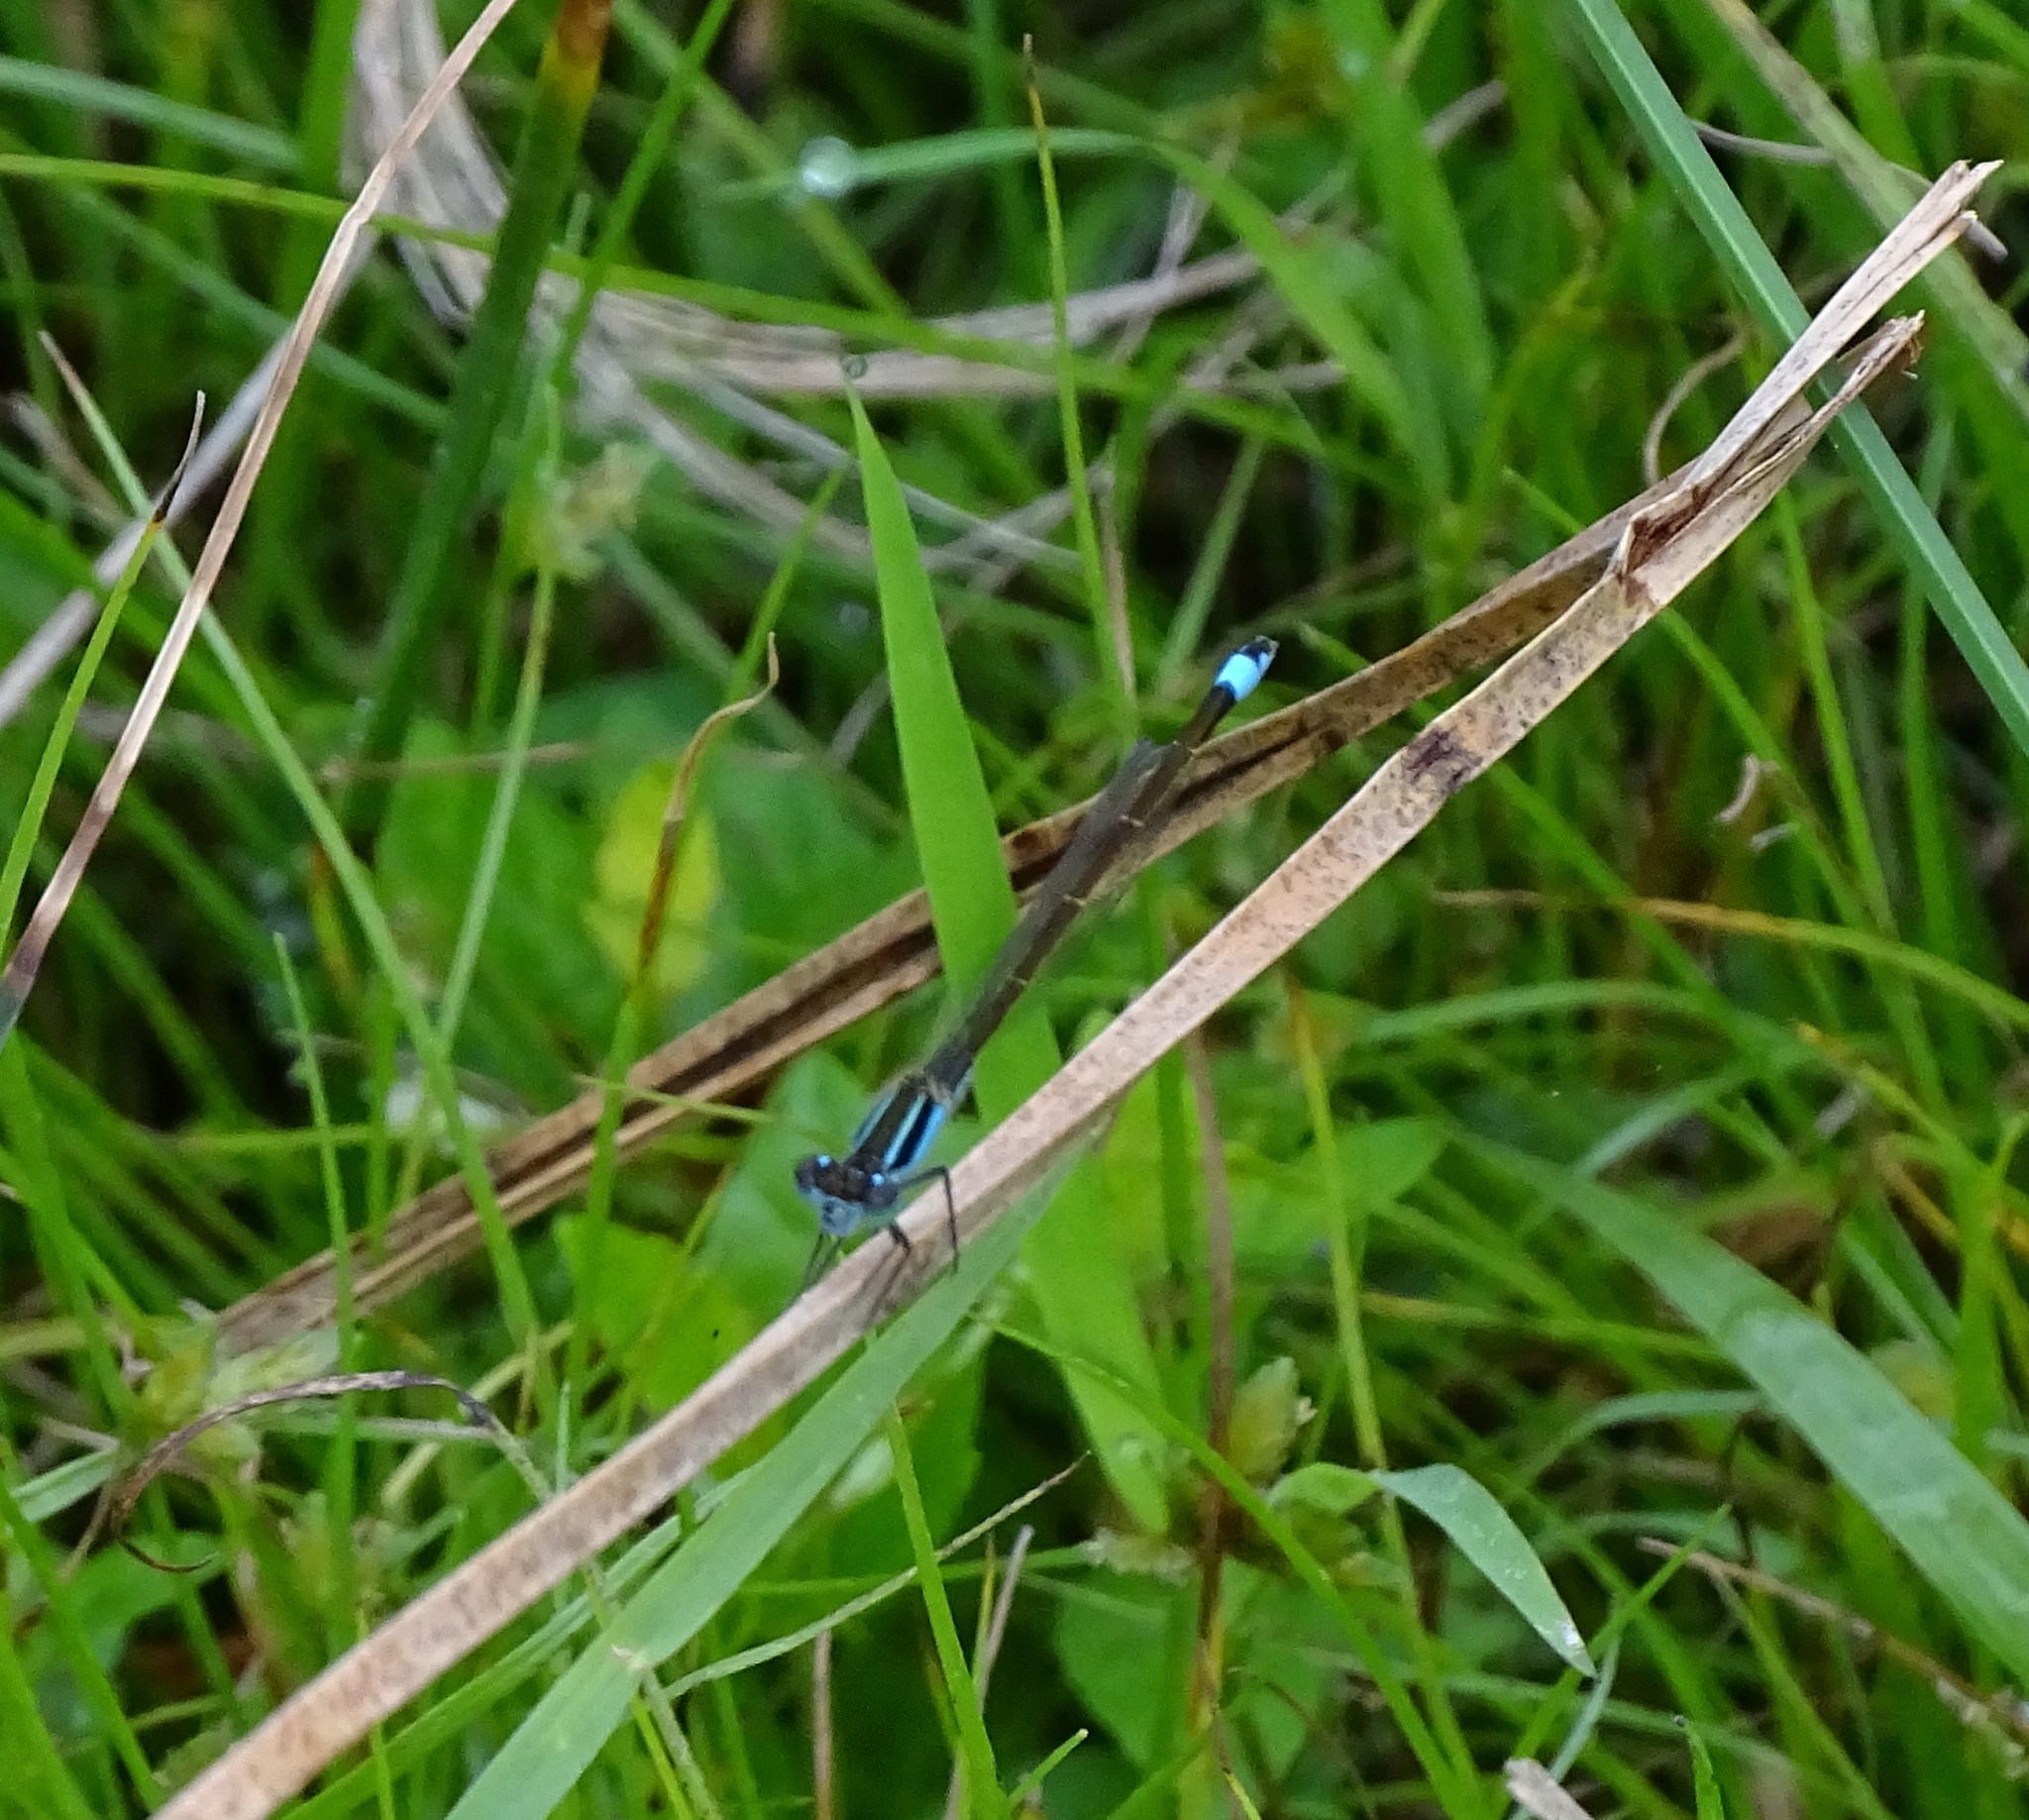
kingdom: Animalia
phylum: Arthropoda
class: Insecta
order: Odonata
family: Coenagrionidae
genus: Ischnura
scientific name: Ischnura ramburii
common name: Rambur's forktail
